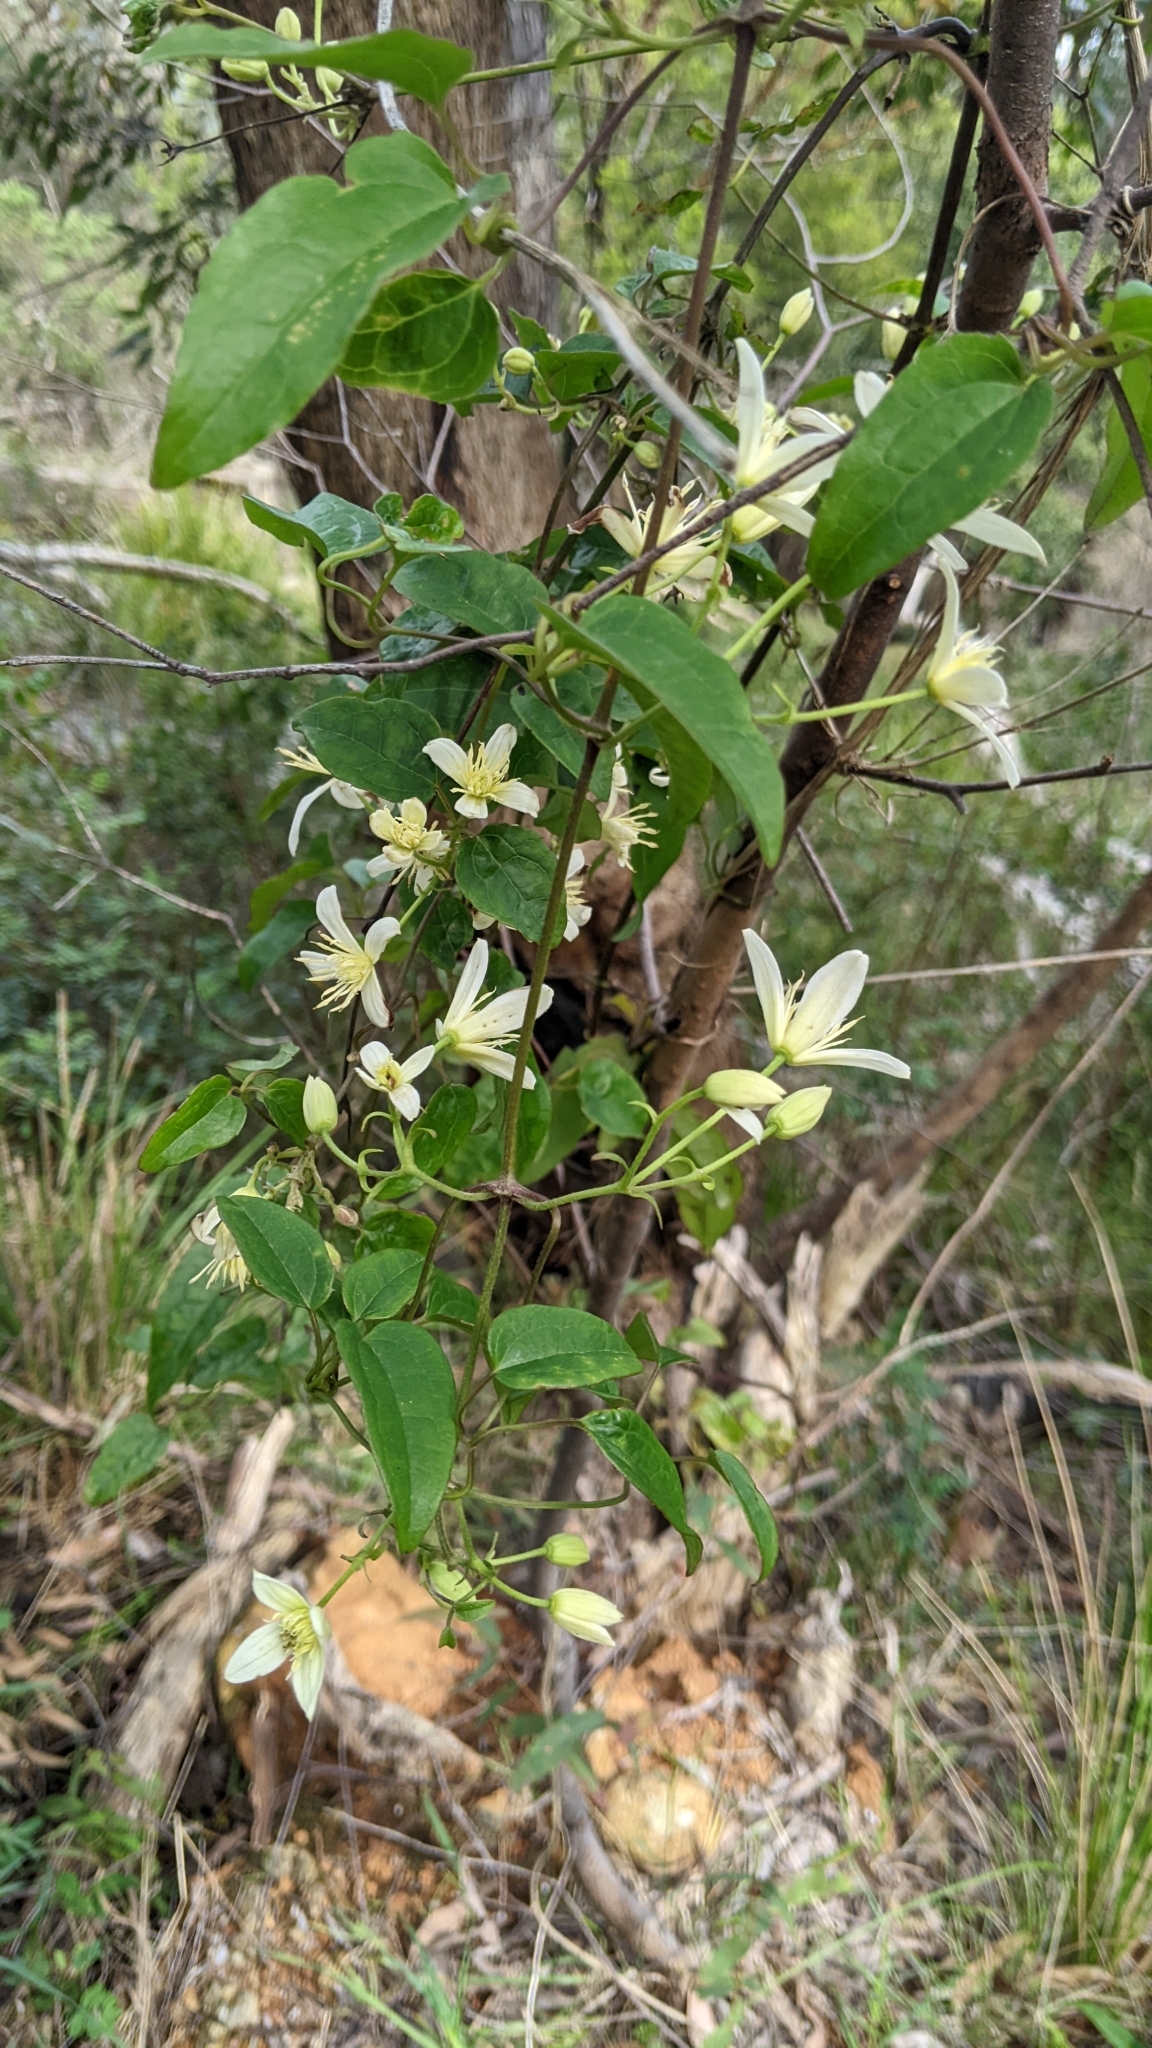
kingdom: Plantae
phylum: Tracheophyta
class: Magnoliopsida
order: Ranunculales
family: Ranunculaceae
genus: Clematis
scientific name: Clematis aristata
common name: Mountain clematis
